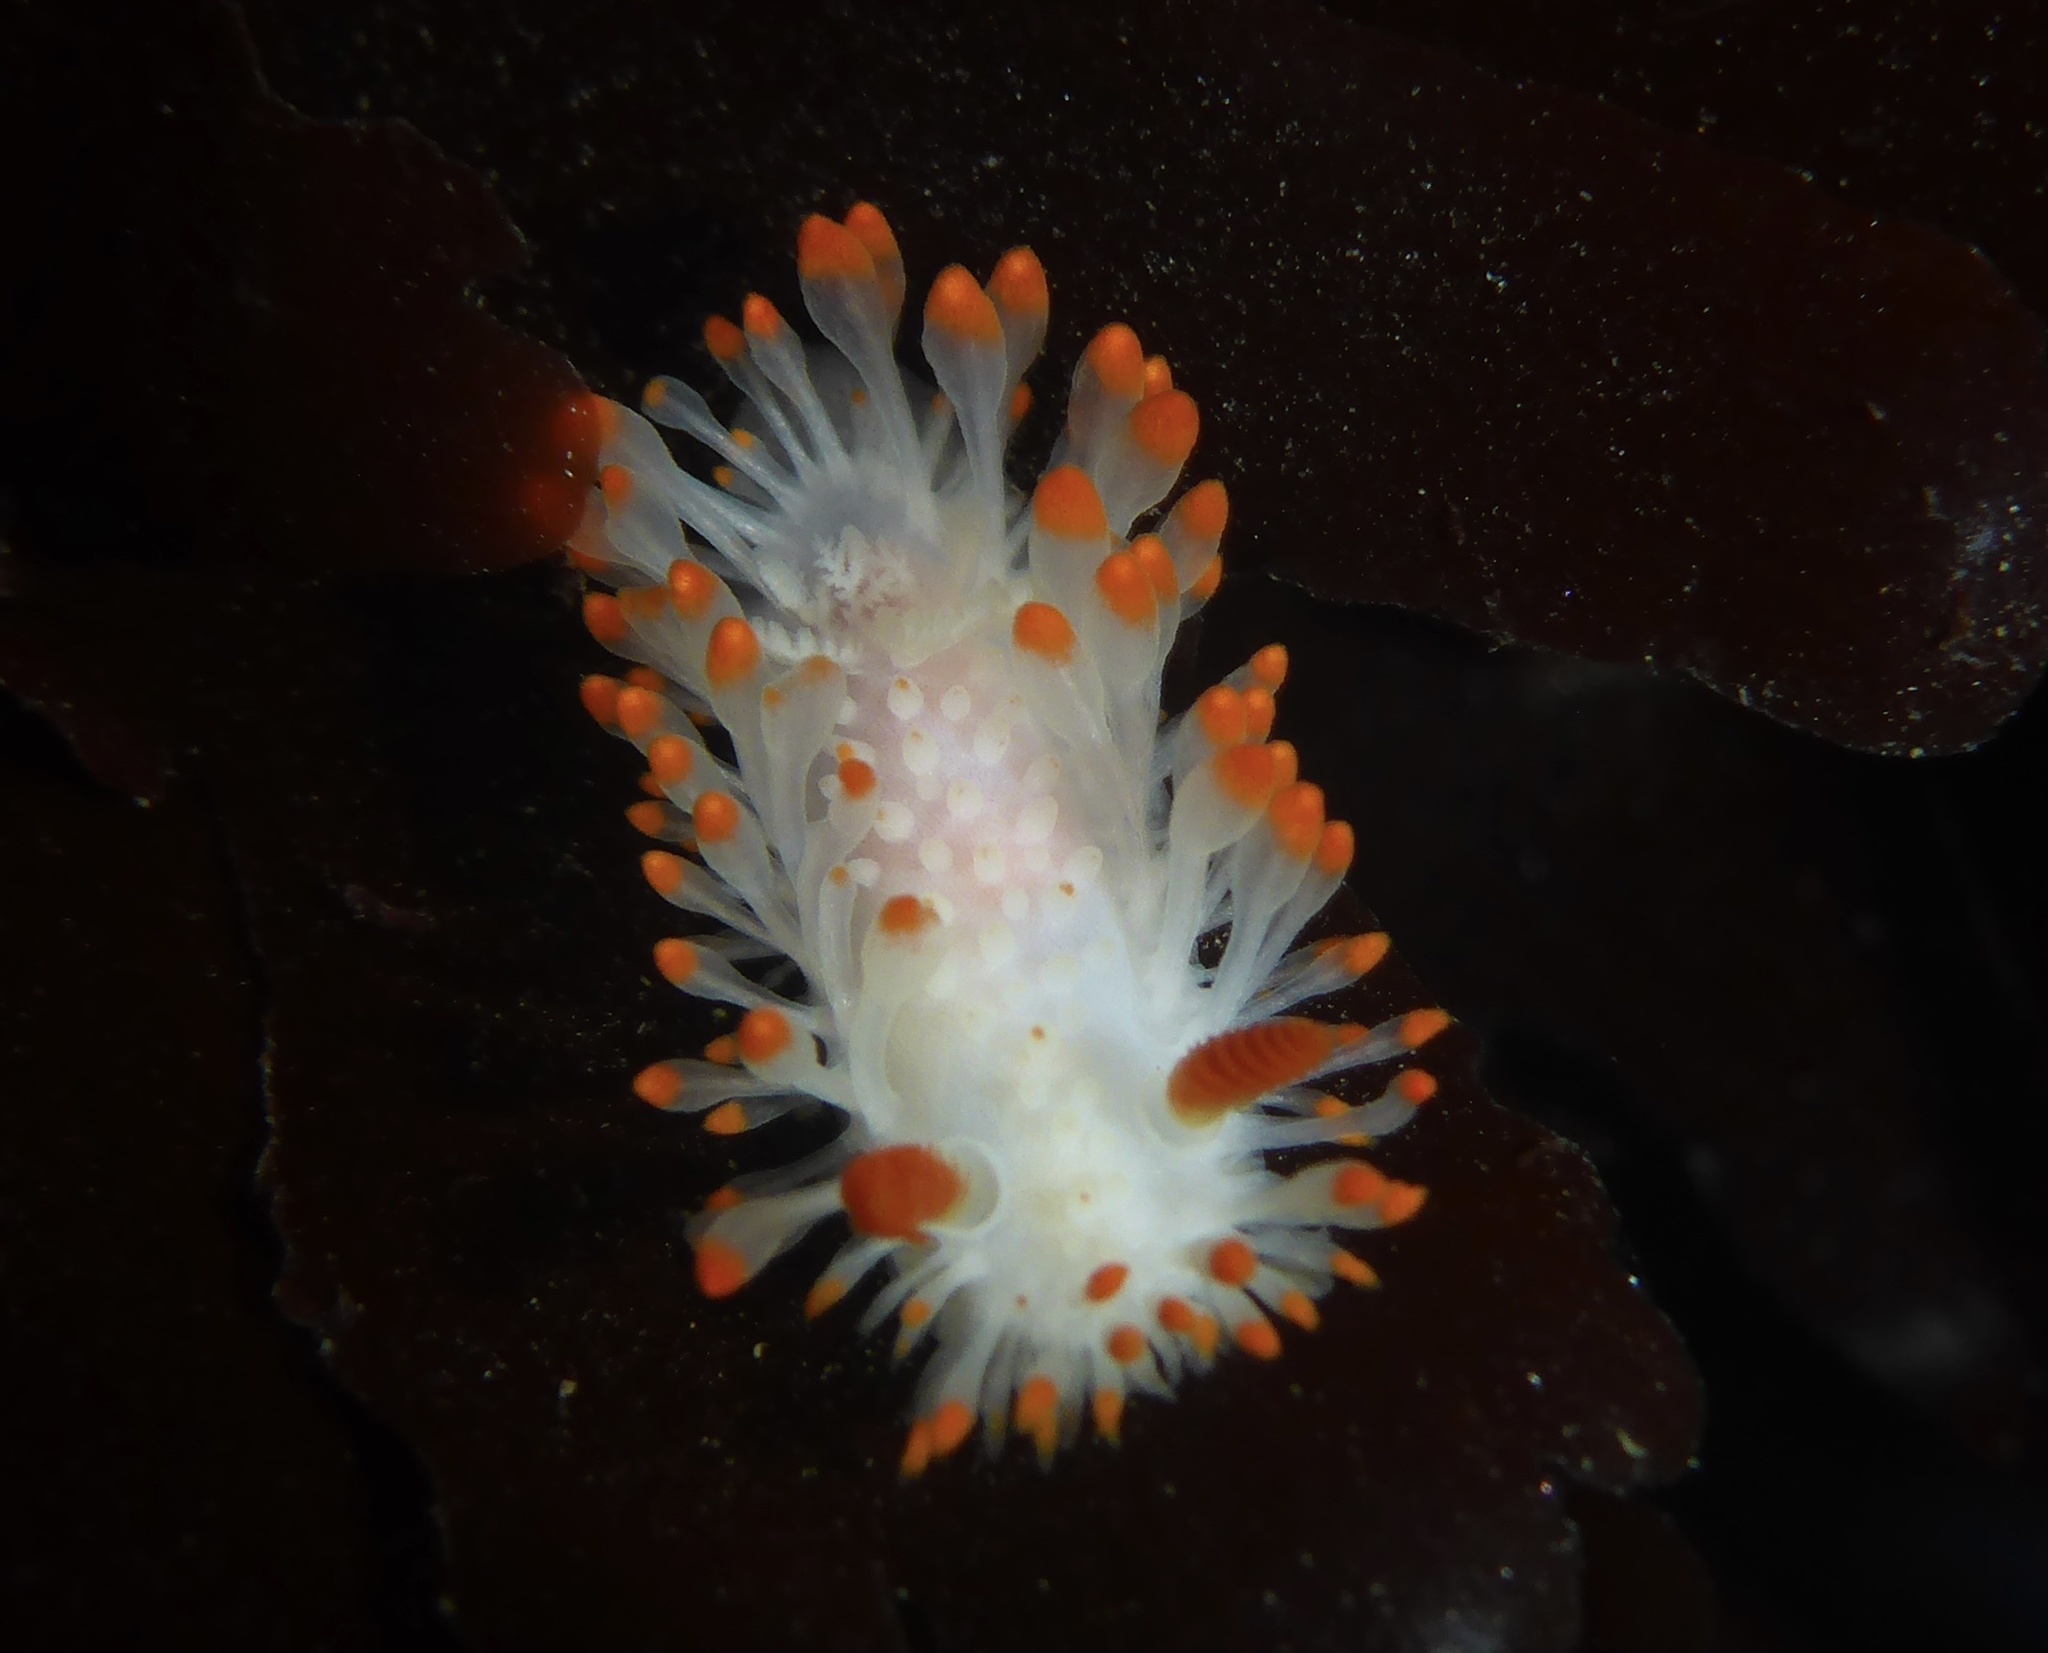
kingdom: Animalia
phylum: Mollusca
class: Gastropoda
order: Nudibranchia
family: Polyceridae
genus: Limacia
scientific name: Limacia cockerelli
